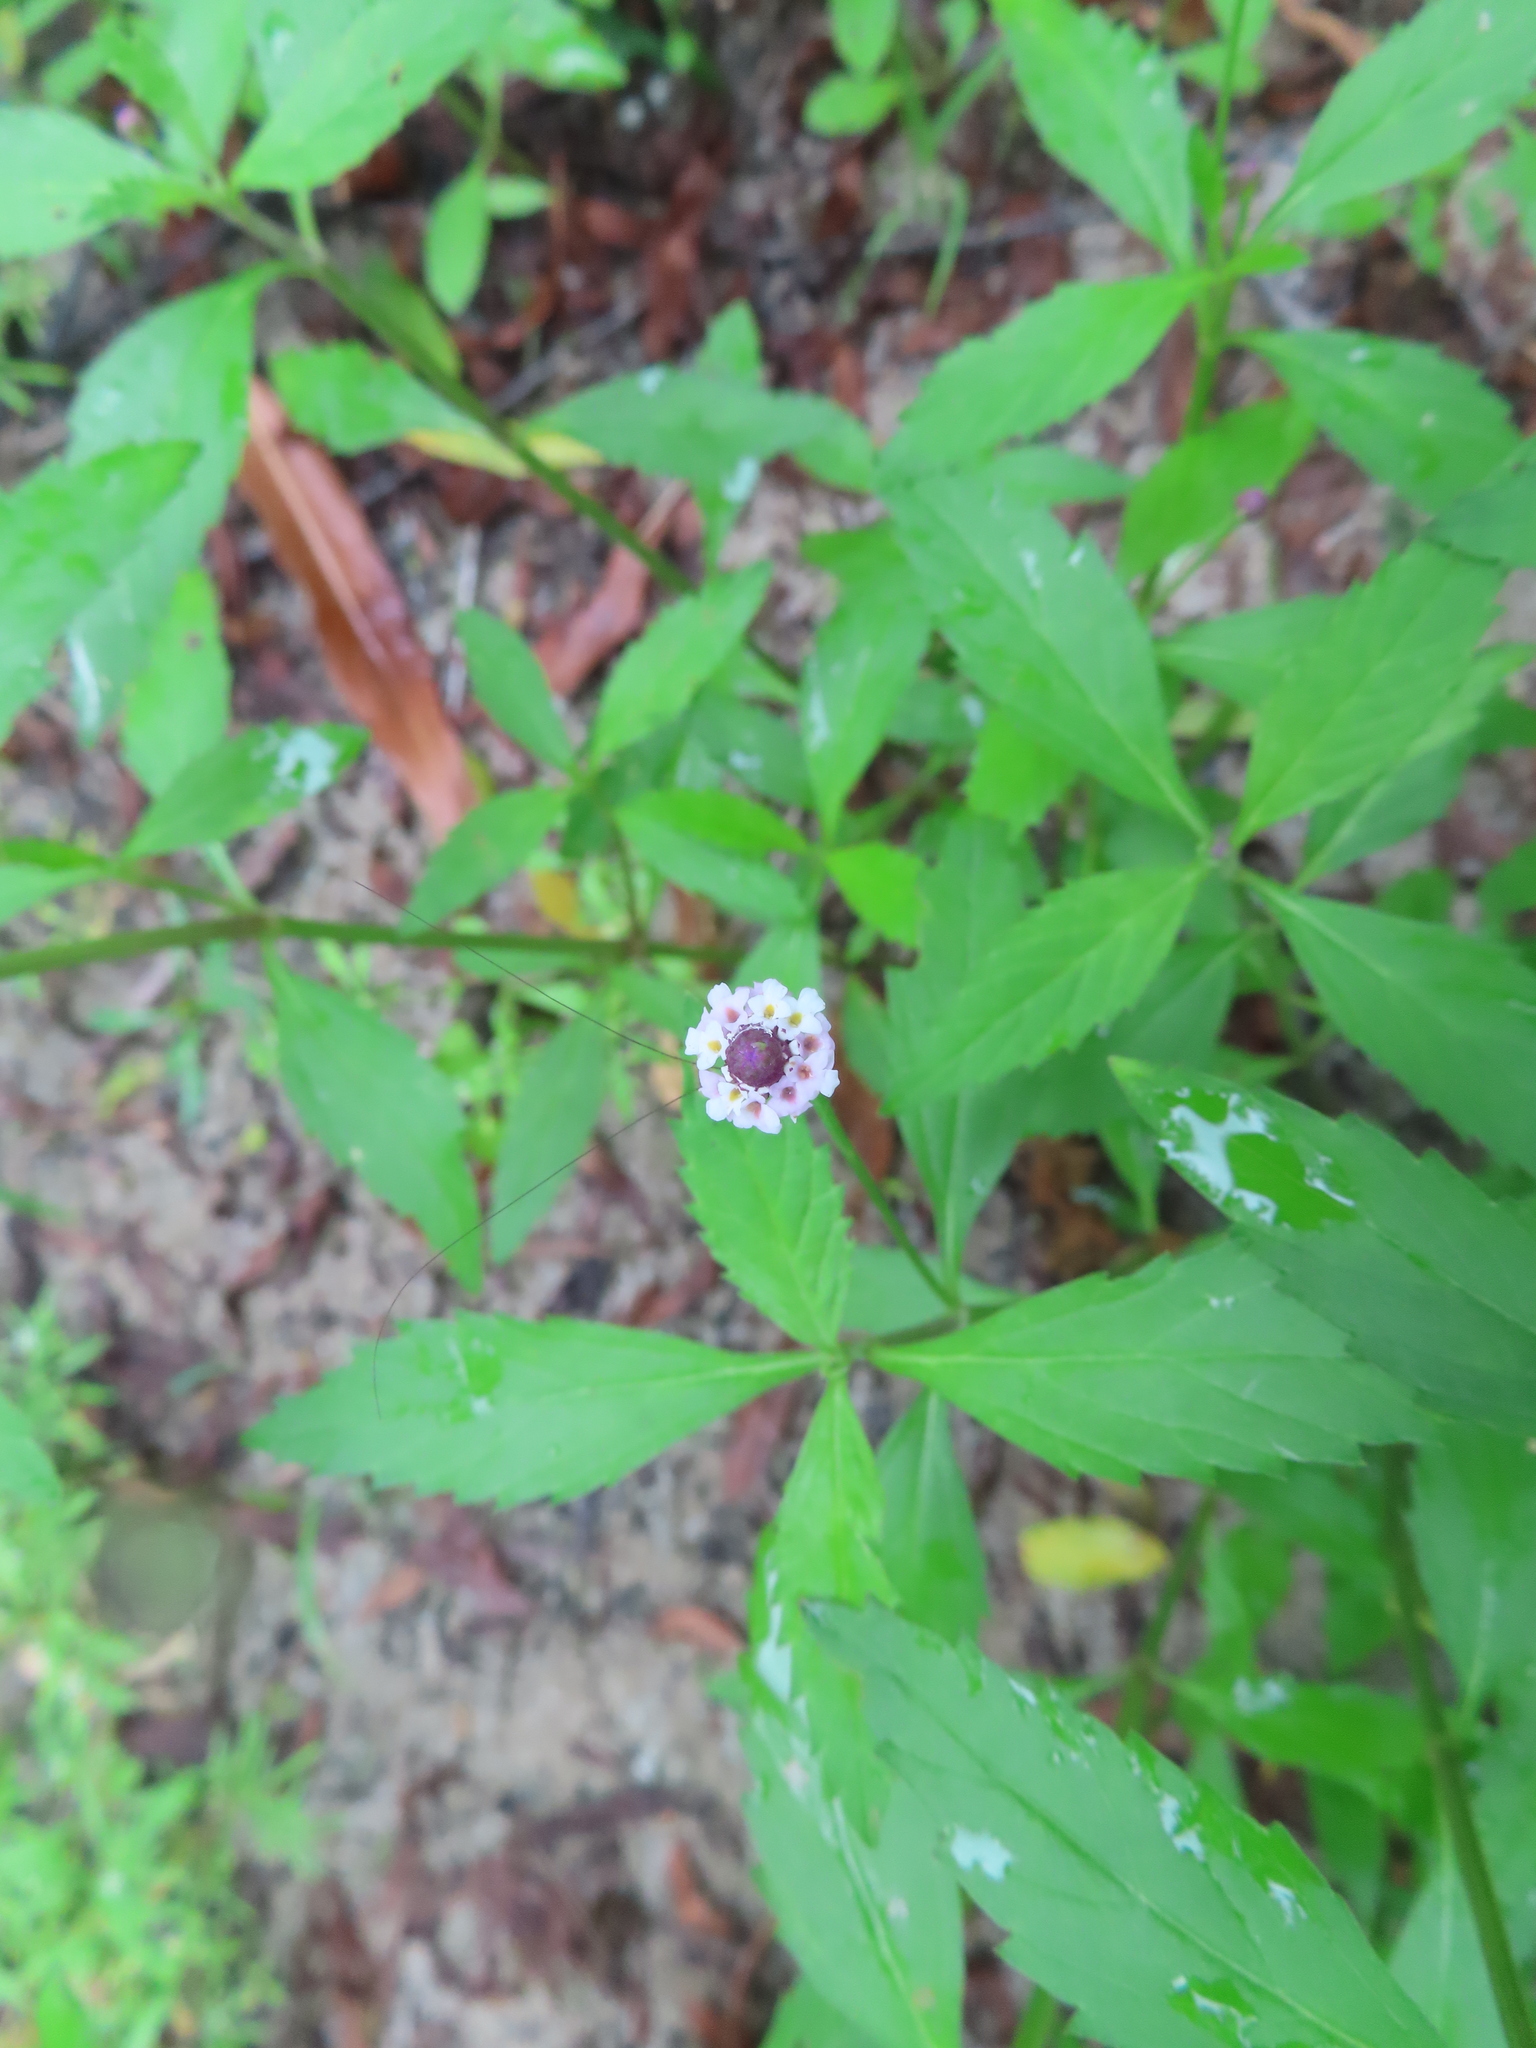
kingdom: Plantae
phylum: Tracheophyta
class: Magnoliopsida
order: Lamiales
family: Verbenaceae
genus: Phyla
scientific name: Phyla lanceolata
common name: Northern fogfruit
